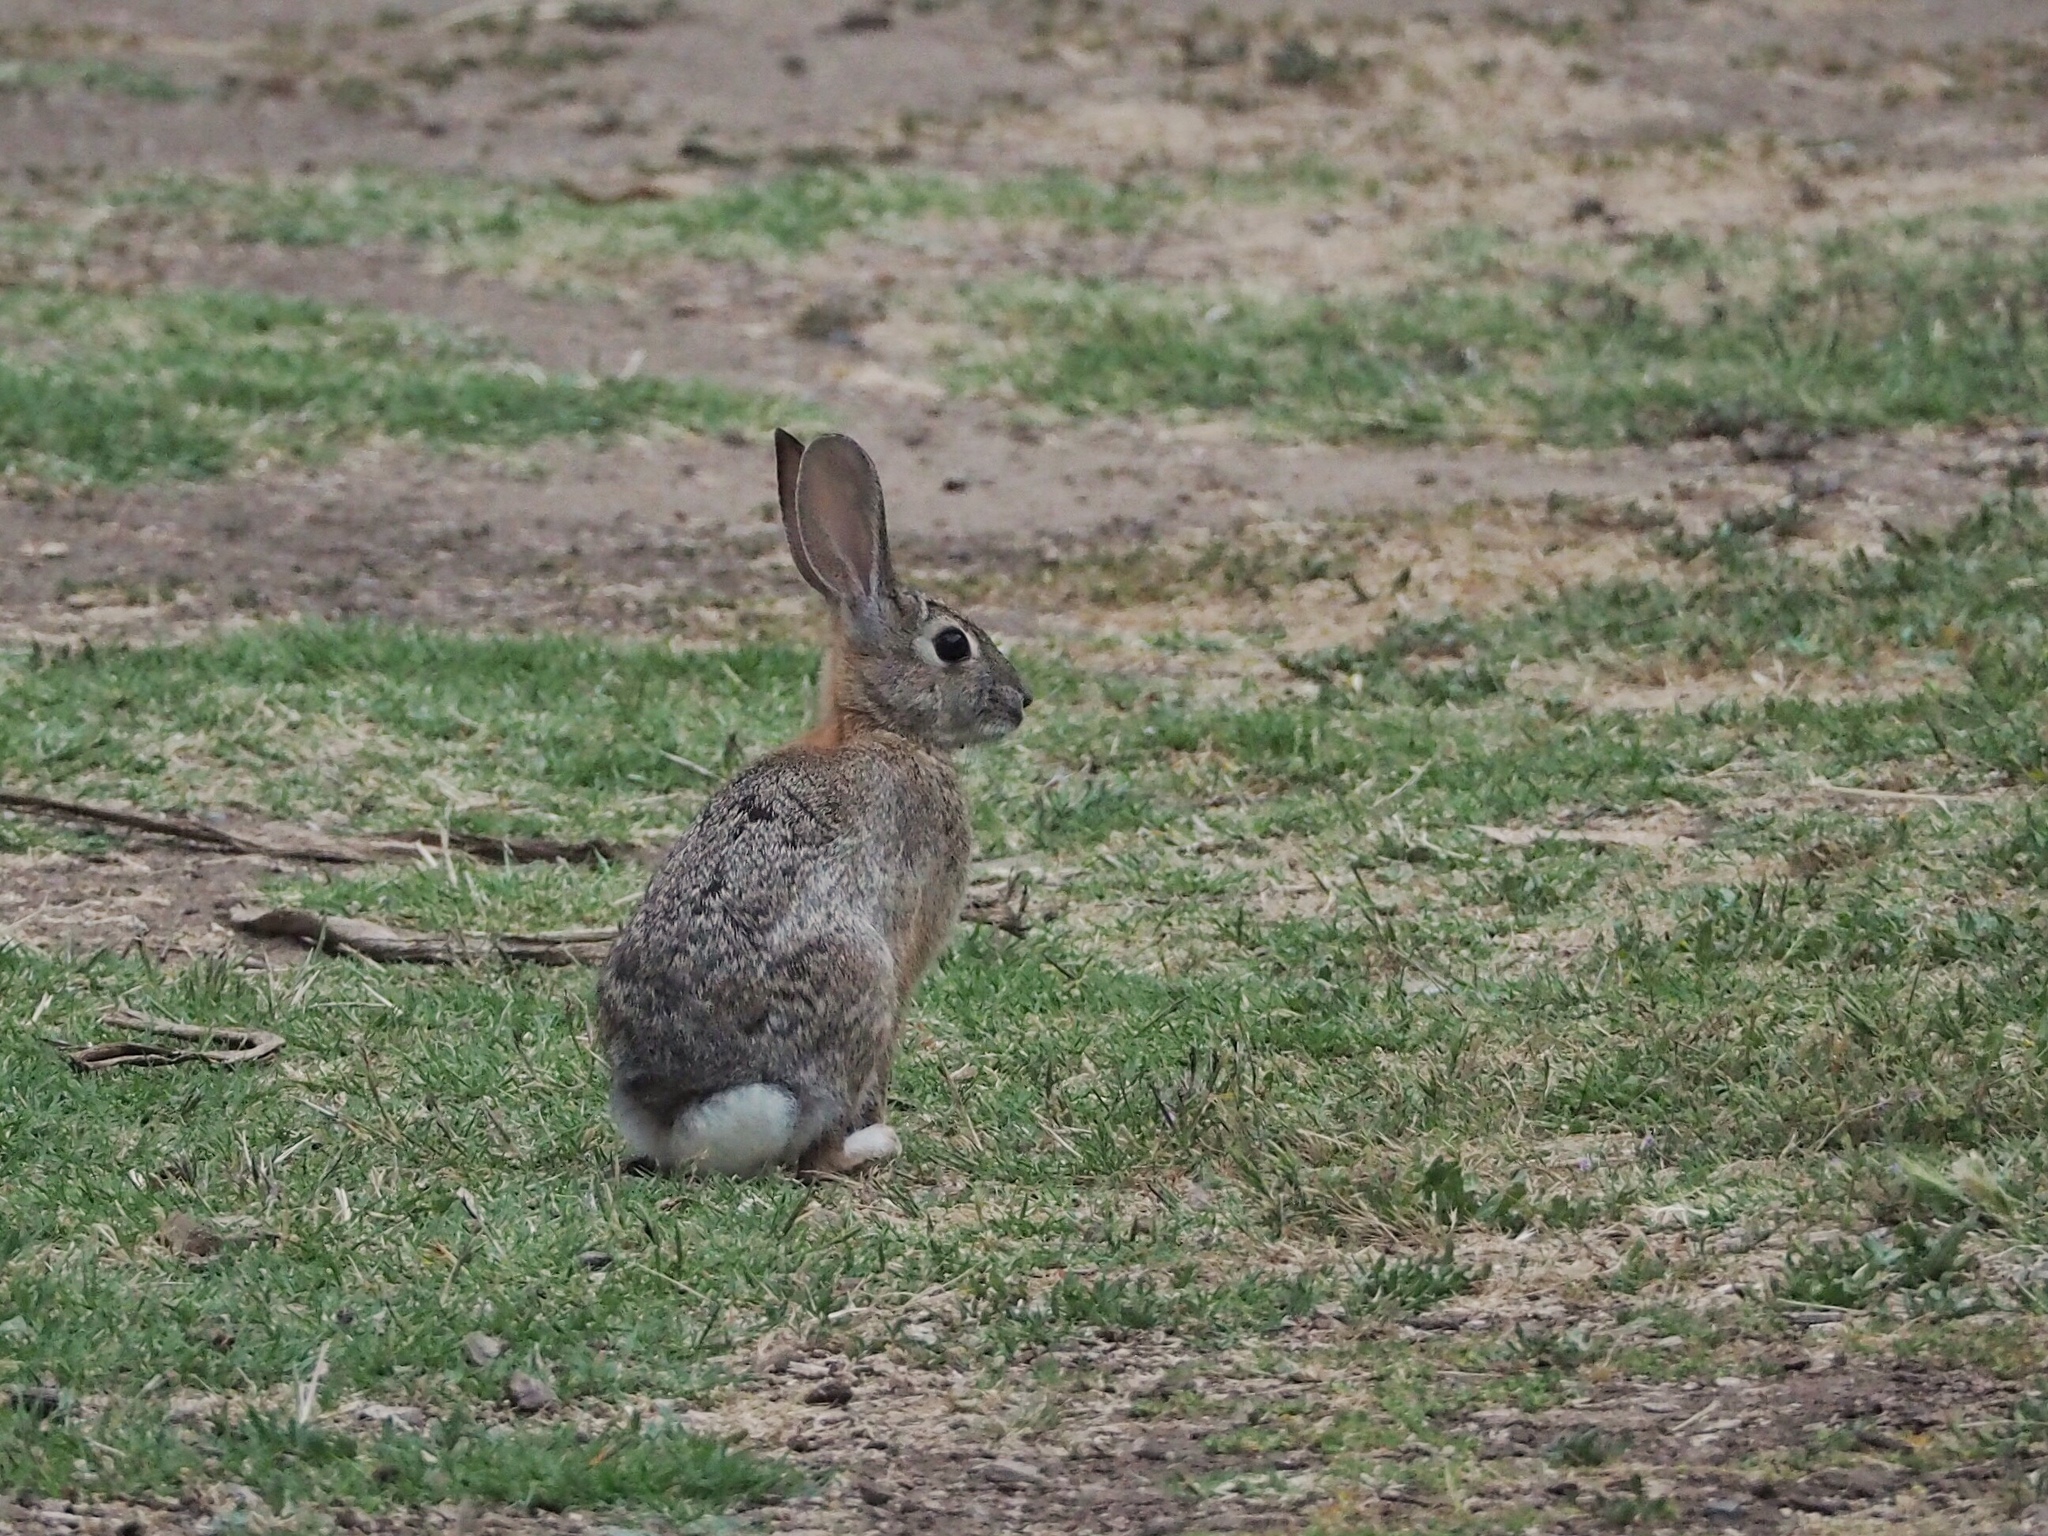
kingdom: Animalia
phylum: Chordata
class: Mammalia
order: Lagomorpha
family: Leporidae
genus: Sylvilagus
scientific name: Sylvilagus audubonii
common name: Desert cottontail
